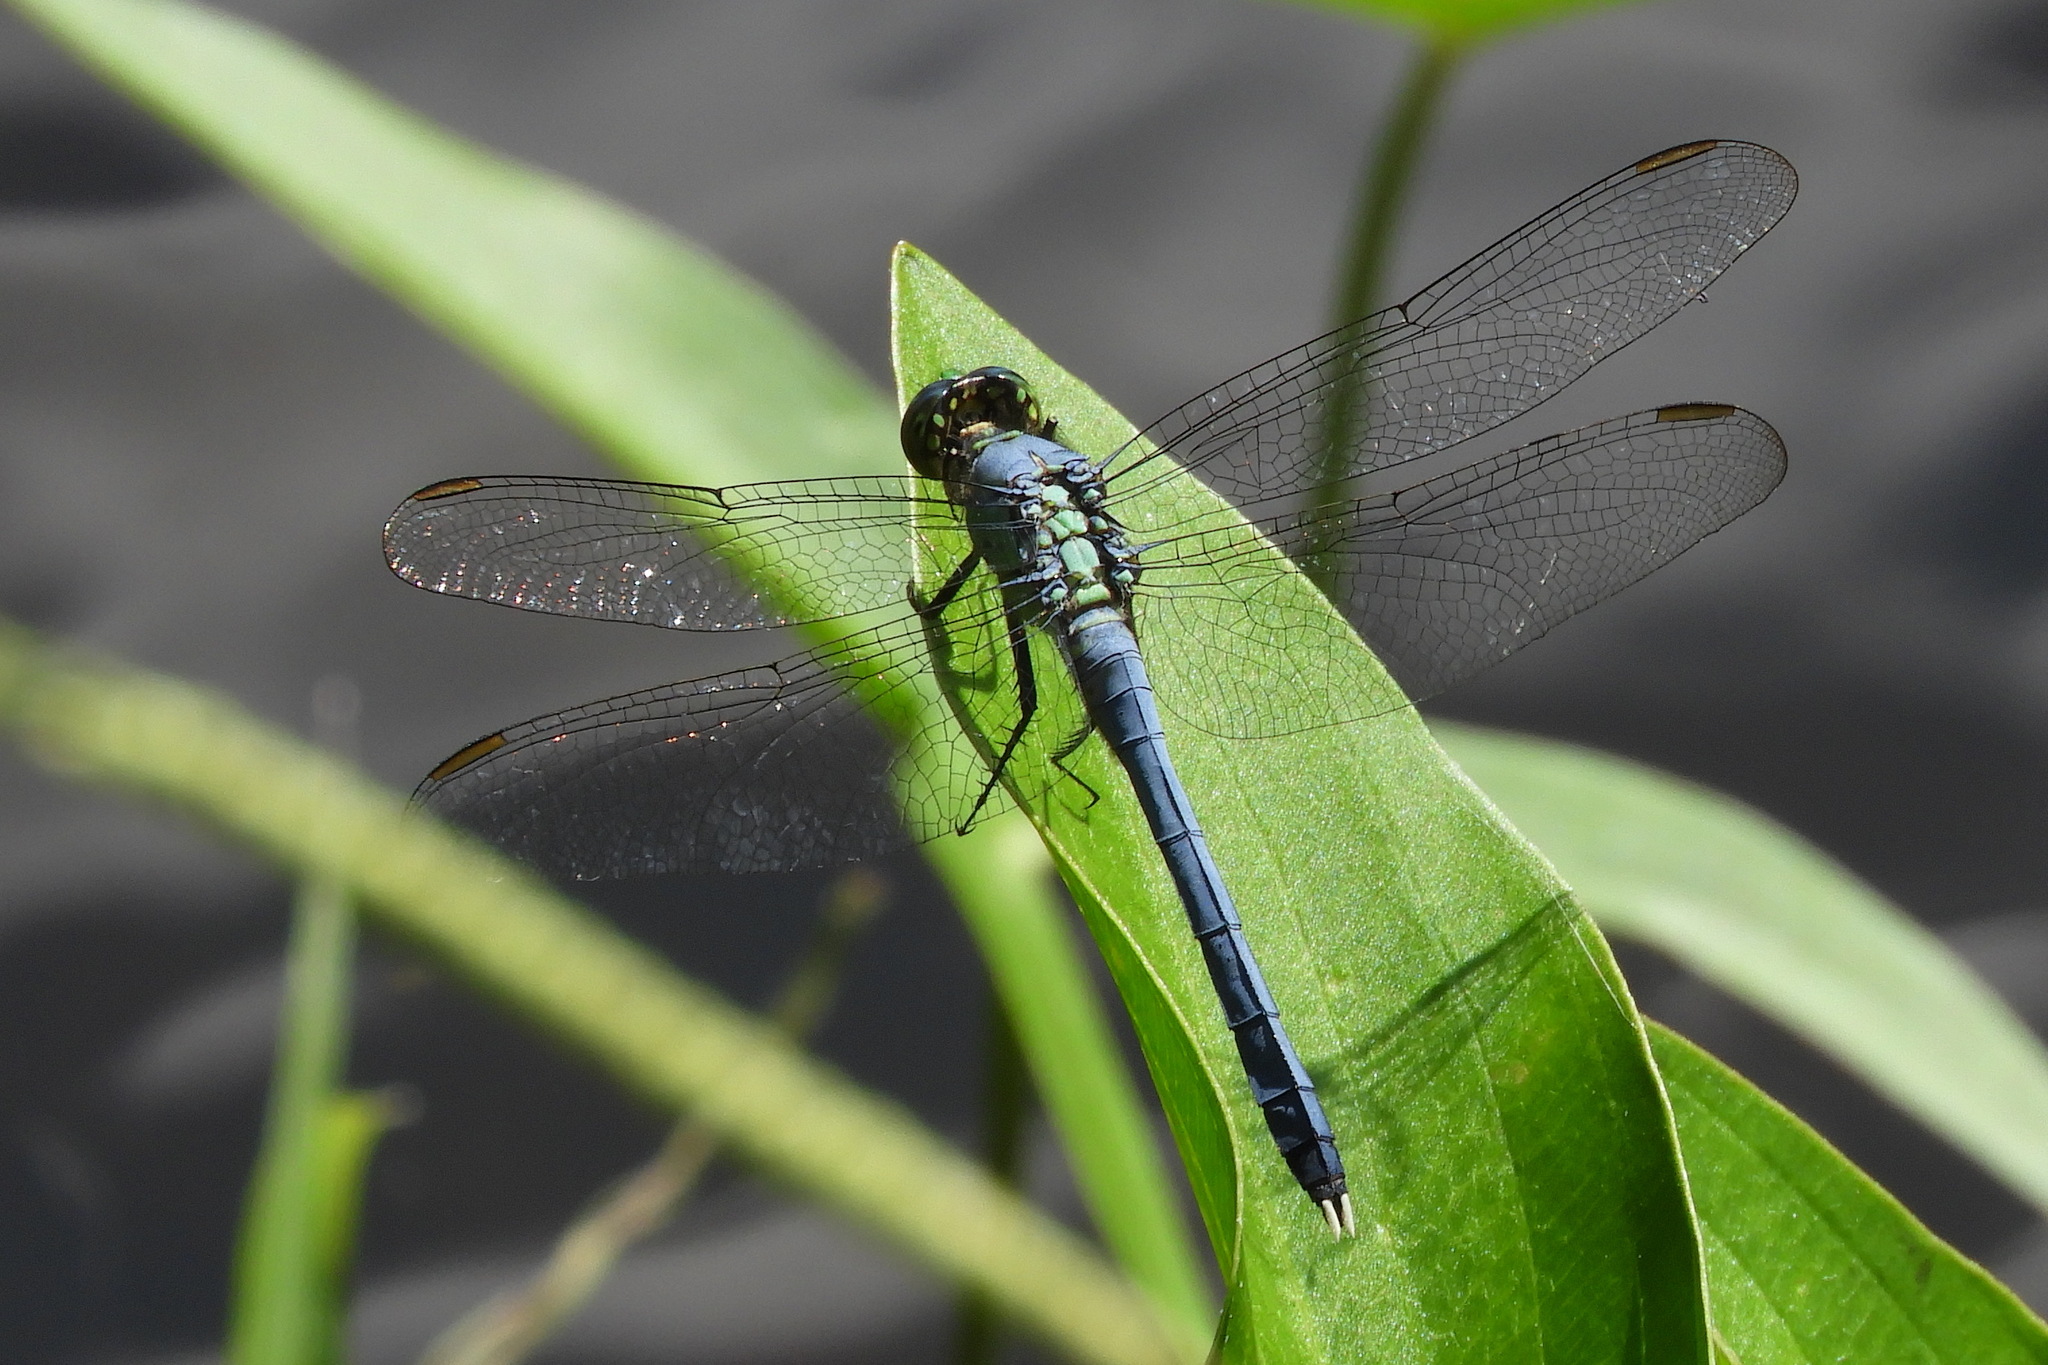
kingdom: Animalia
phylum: Arthropoda
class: Insecta
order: Odonata
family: Libellulidae
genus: Erythemis
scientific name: Erythemis simplicicollis
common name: Eastern pondhawk
